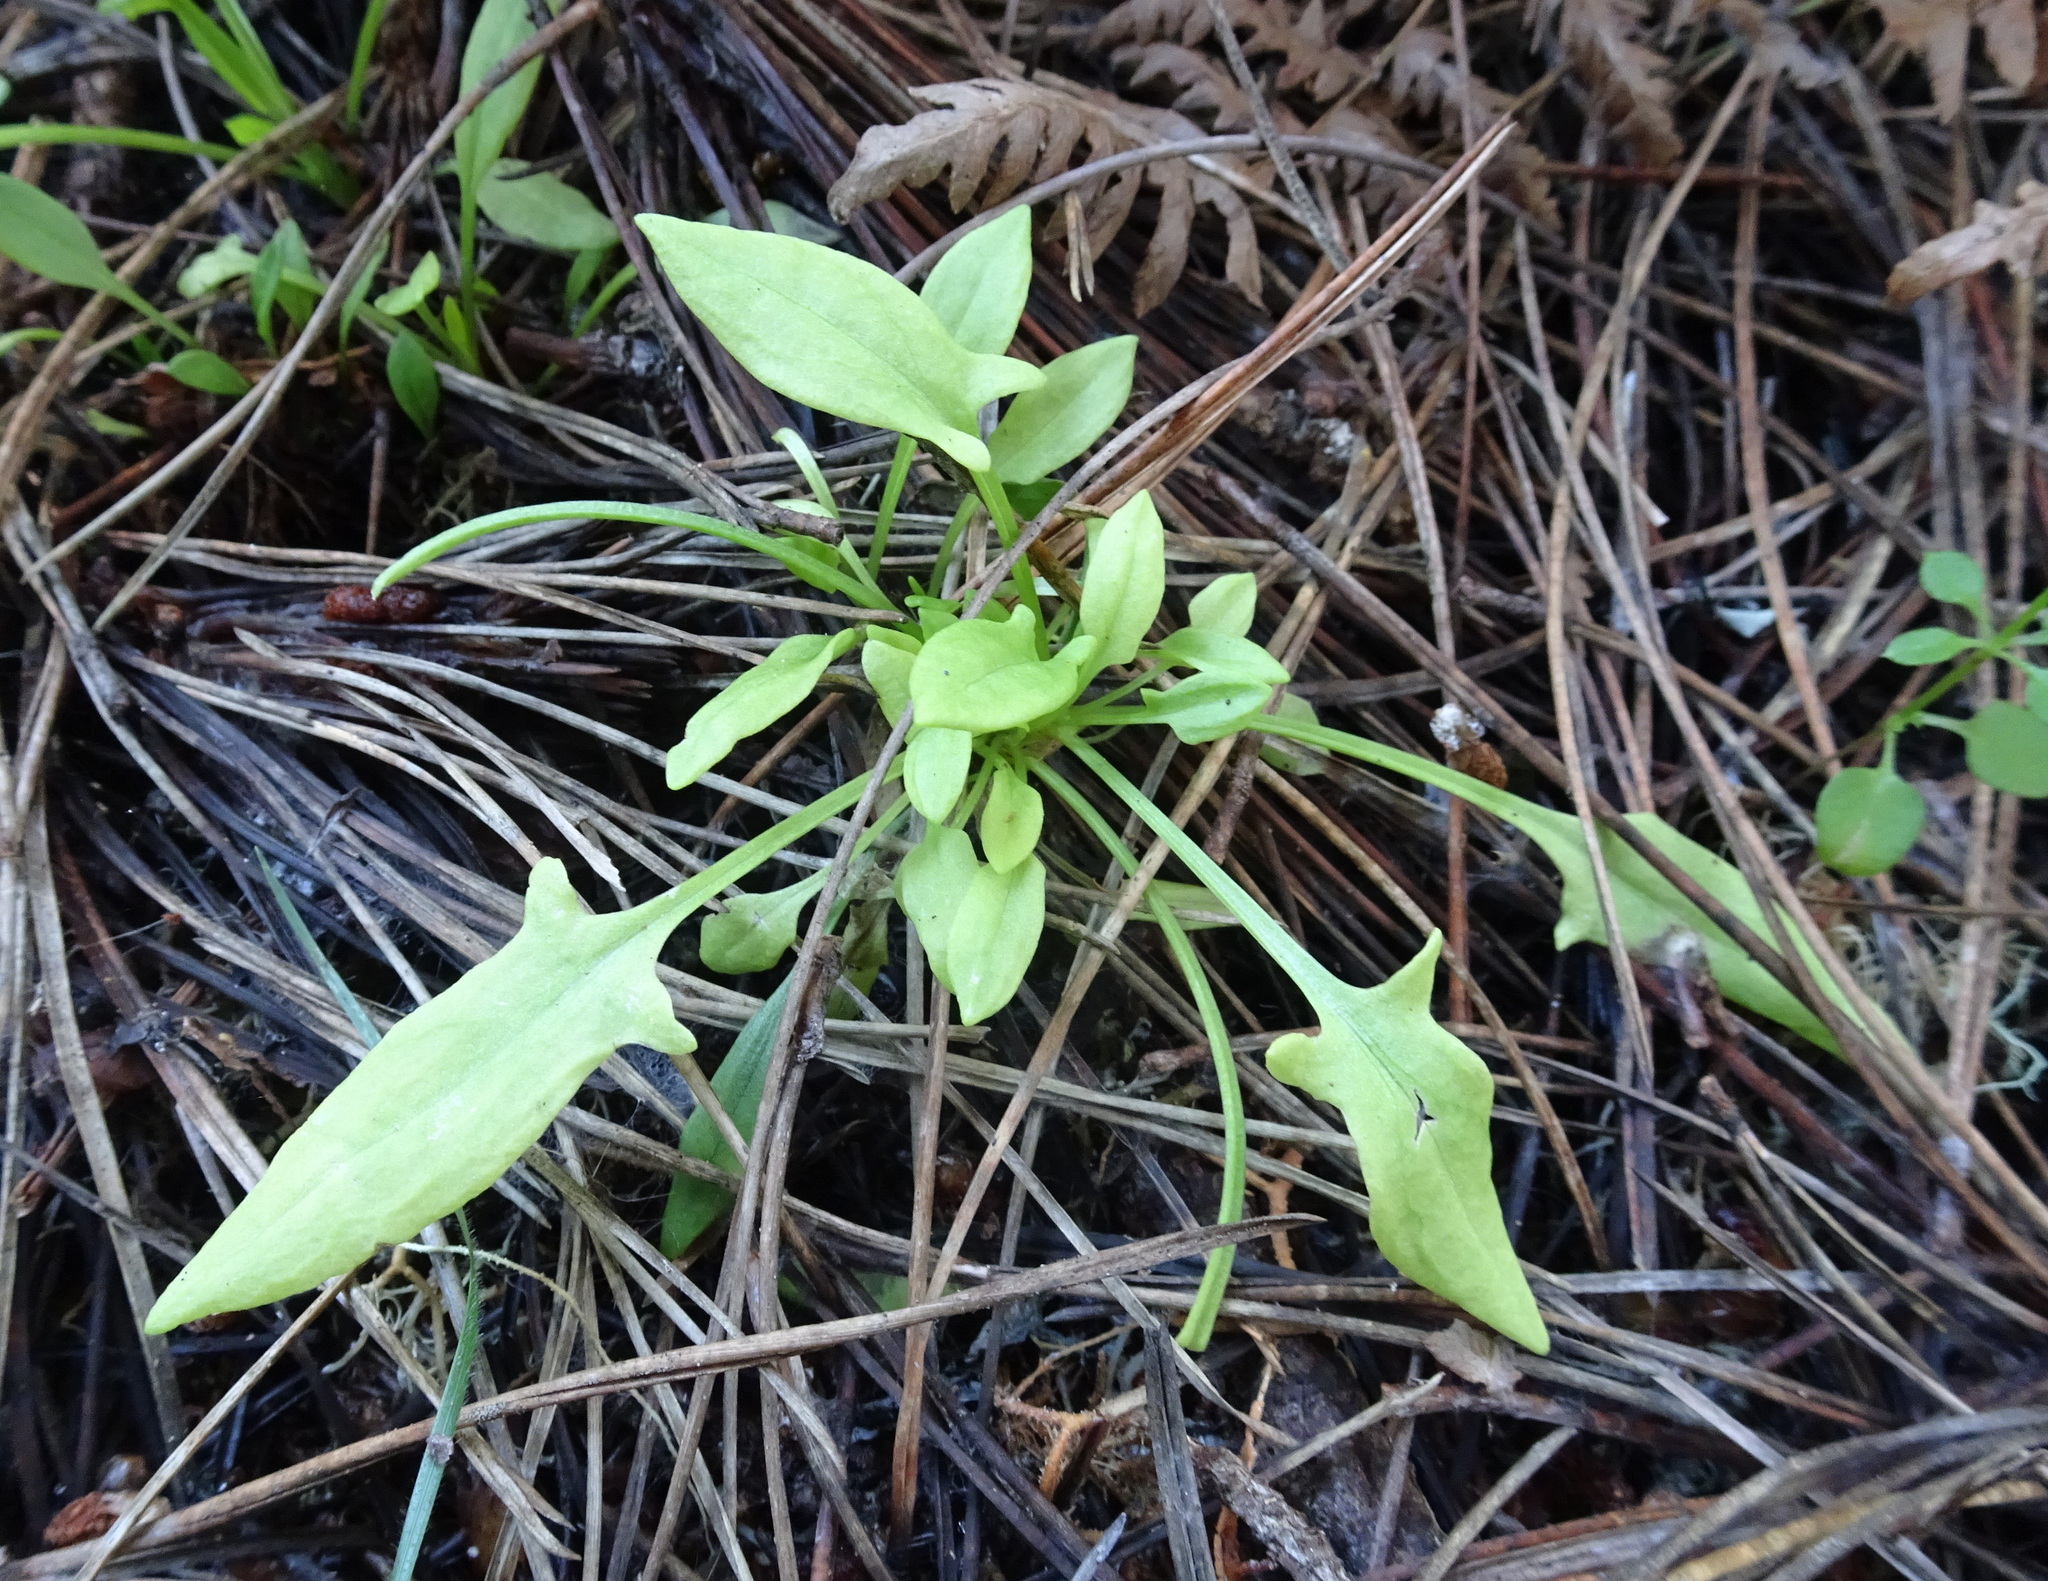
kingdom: Plantae
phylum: Tracheophyta
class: Magnoliopsida
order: Caryophyllales
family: Polygonaceae
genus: Rumex
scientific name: Rumex acetosella
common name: Common sheep sorrel
